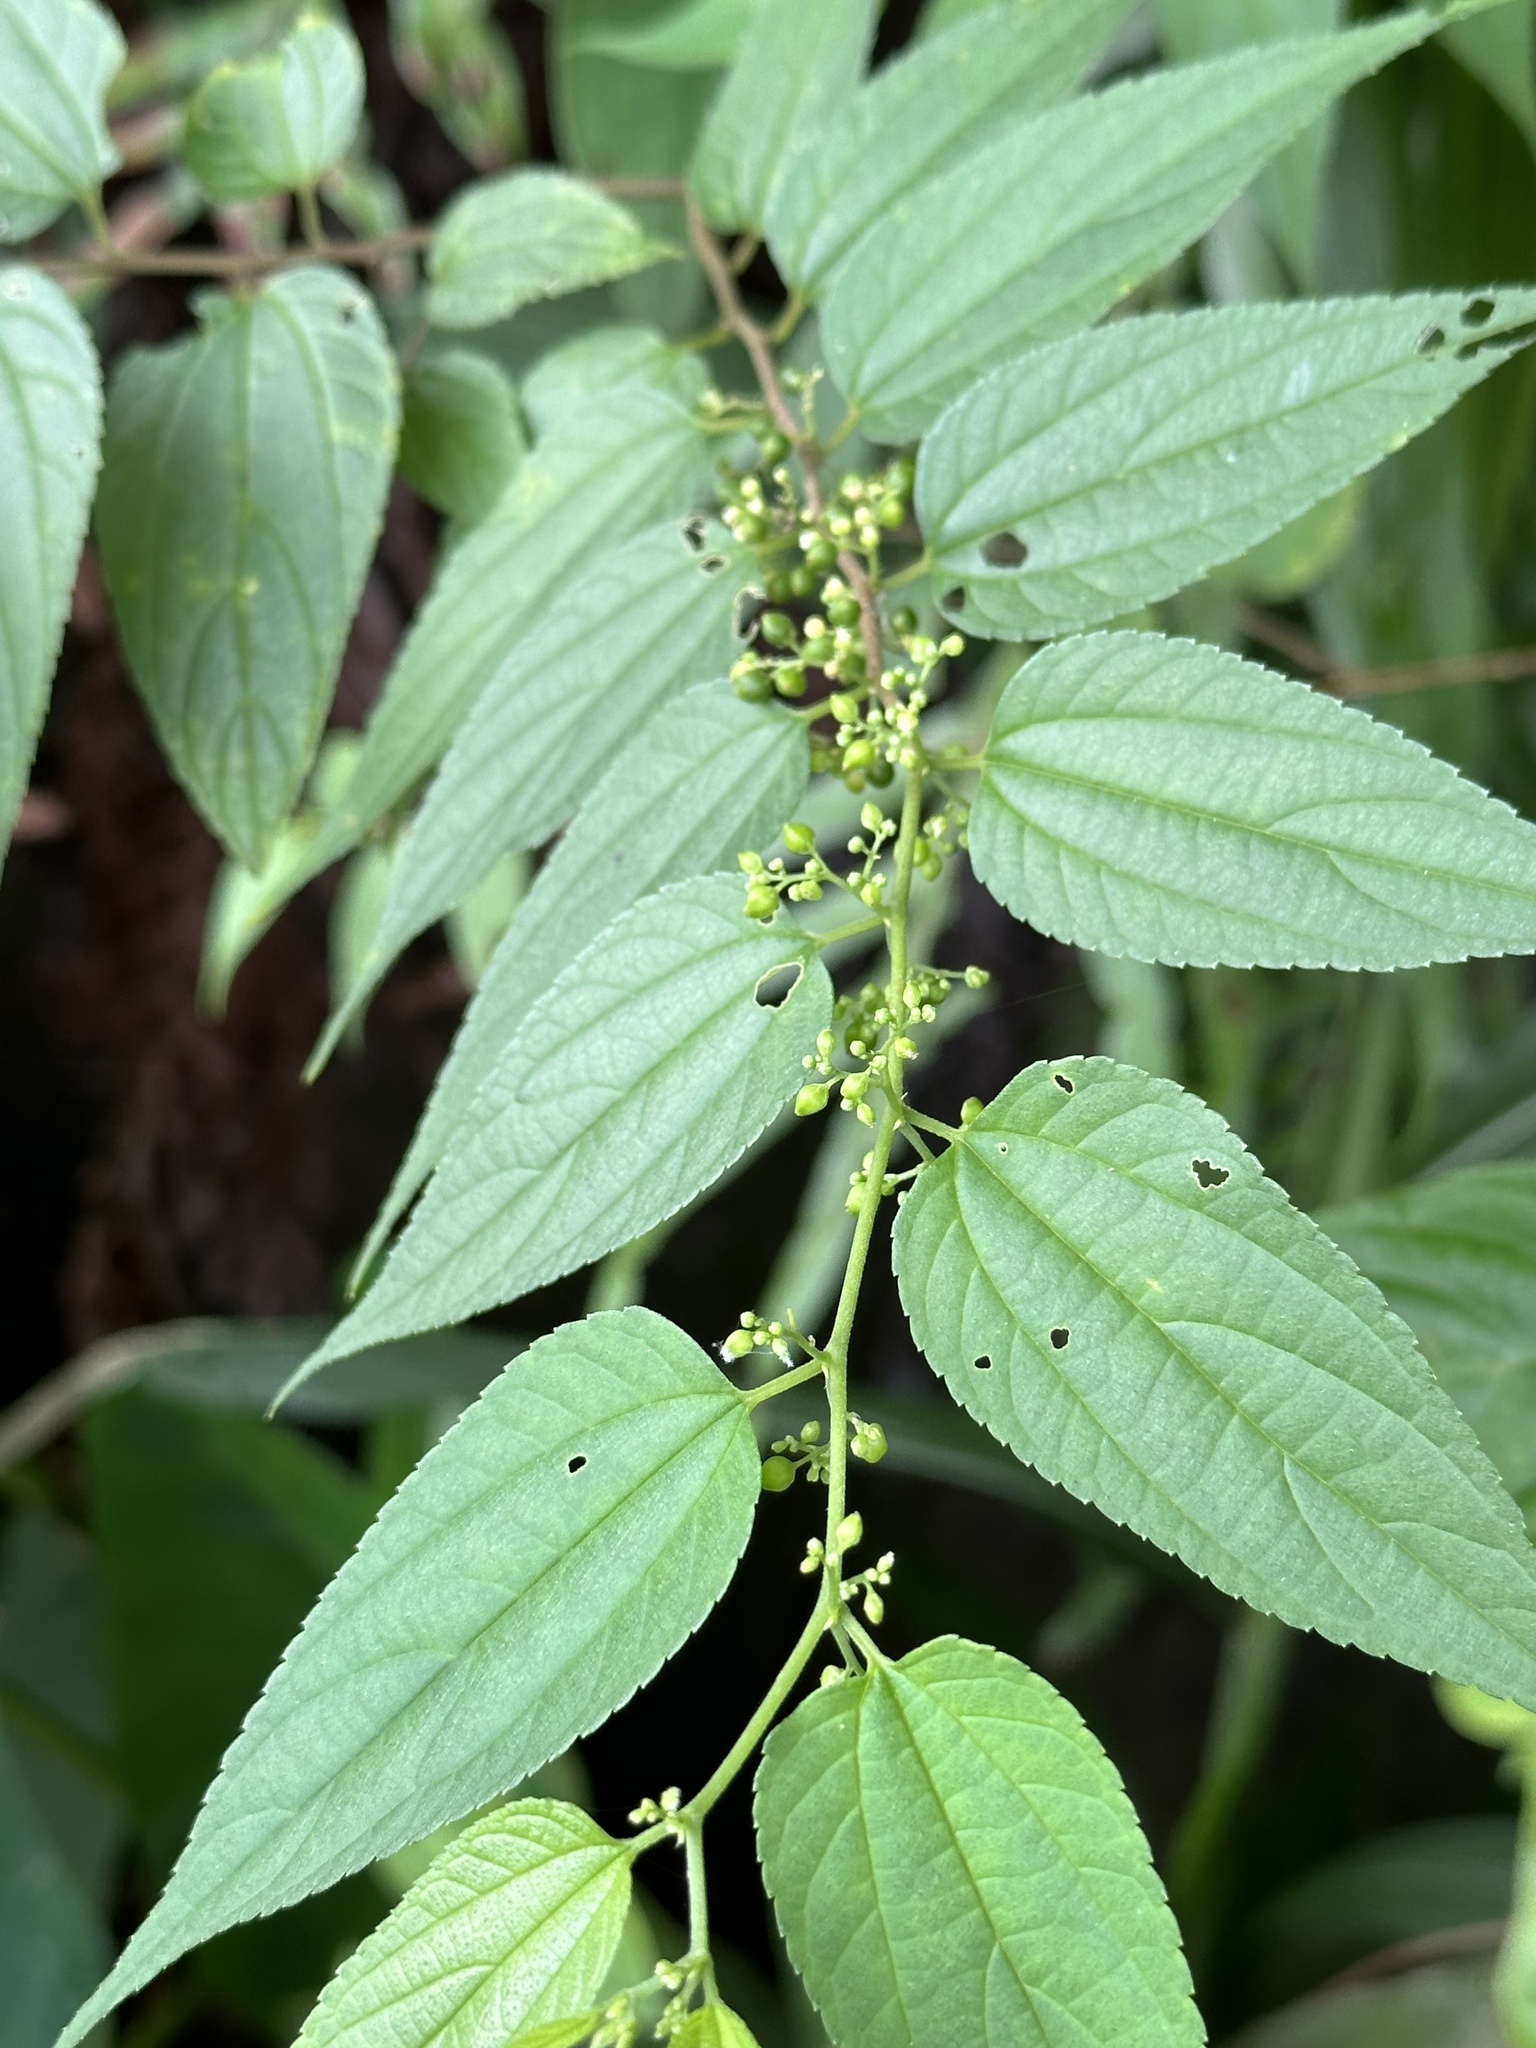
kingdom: Plantae
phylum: Tracheophyta
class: Magnoliopsida
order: Rosales
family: Cannabaceae
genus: Trema
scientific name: Trema cannabina
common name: Poison-peach
